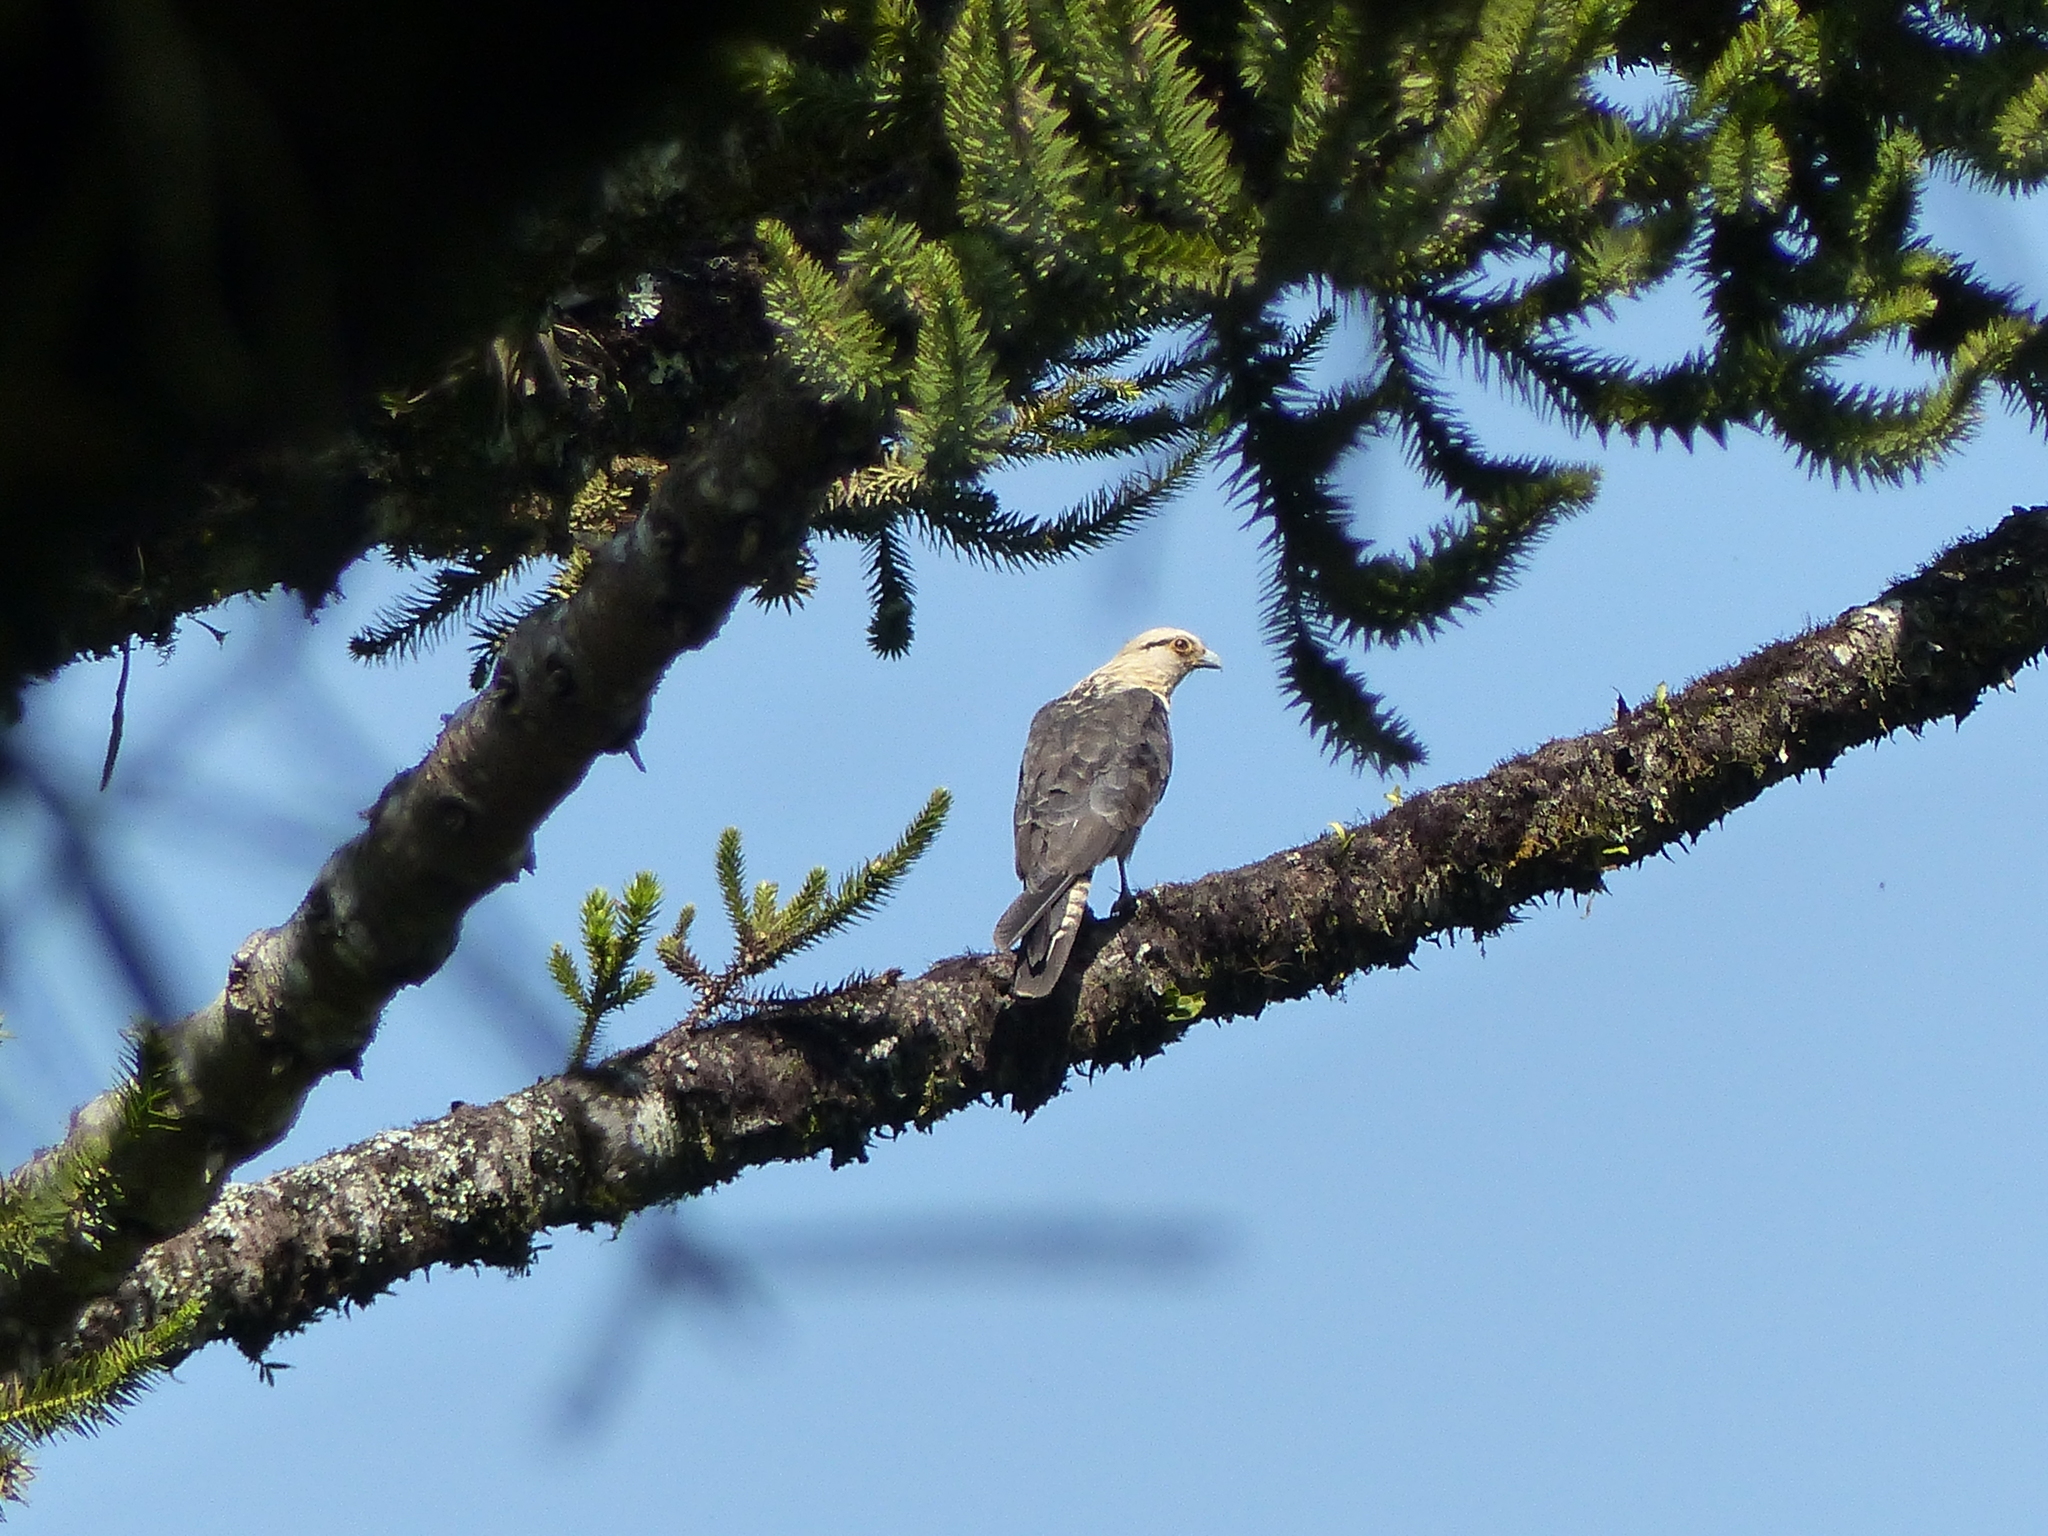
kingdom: Animalia
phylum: Chordata
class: Aves
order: Falconiformes
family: Falconidae
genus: Daptrius
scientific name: Daptrius
